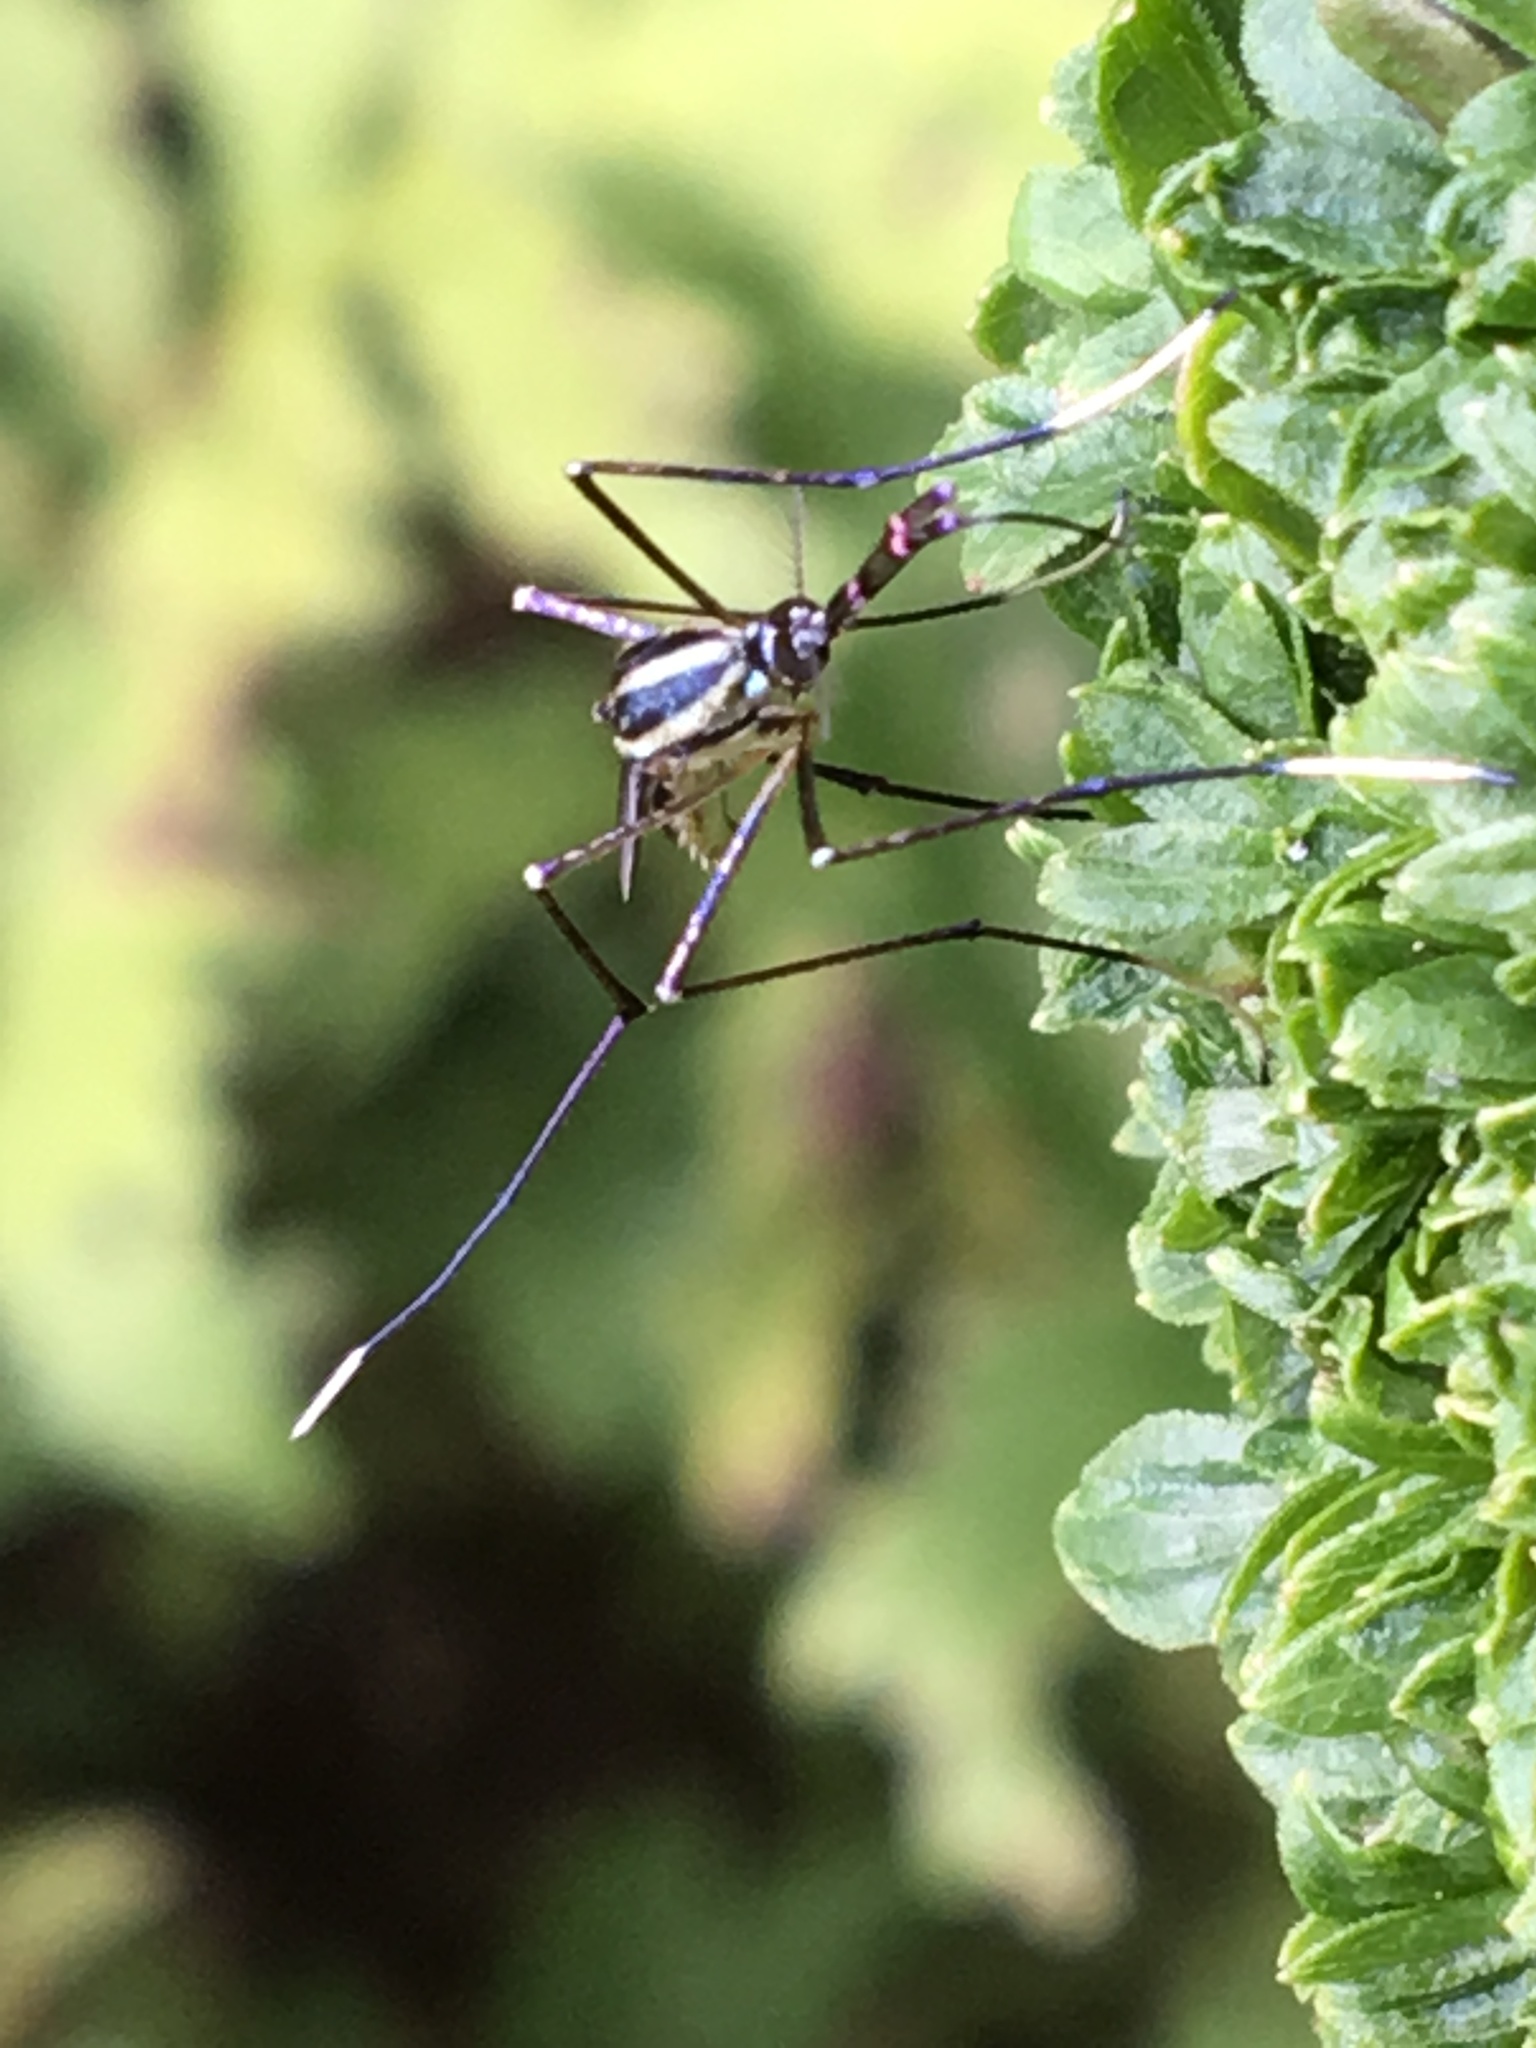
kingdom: Animalia
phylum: Arthropoda
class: Insecta
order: Diptera
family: Culicidae
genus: Toxorhynchites
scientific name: Toxorhynchites rutilus
